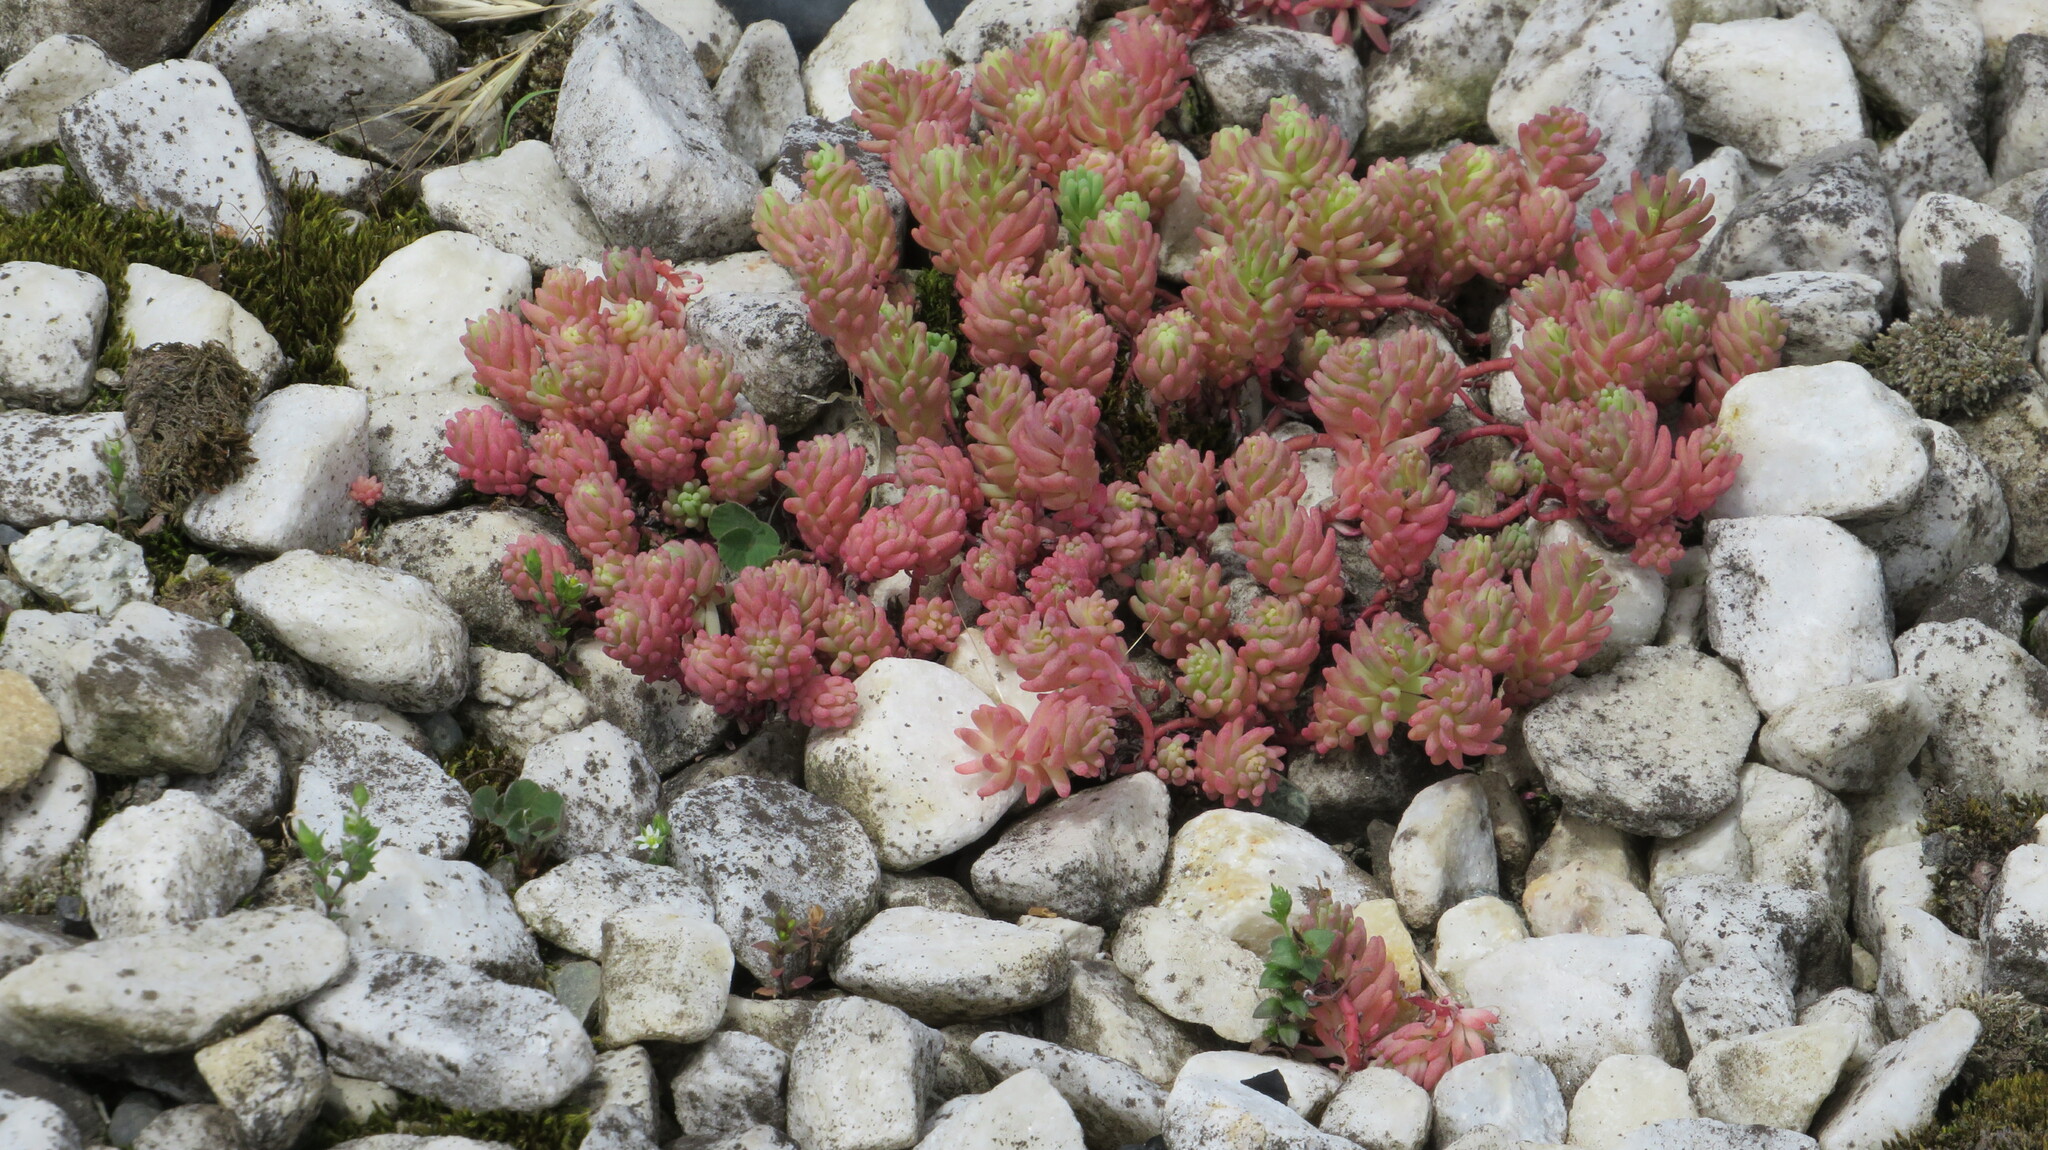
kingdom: Plantae
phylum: Tracheophyta
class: Magnoliopsida
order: Saxifragales
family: Crassulaceae
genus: Sedum
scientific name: Sedum pallidum
